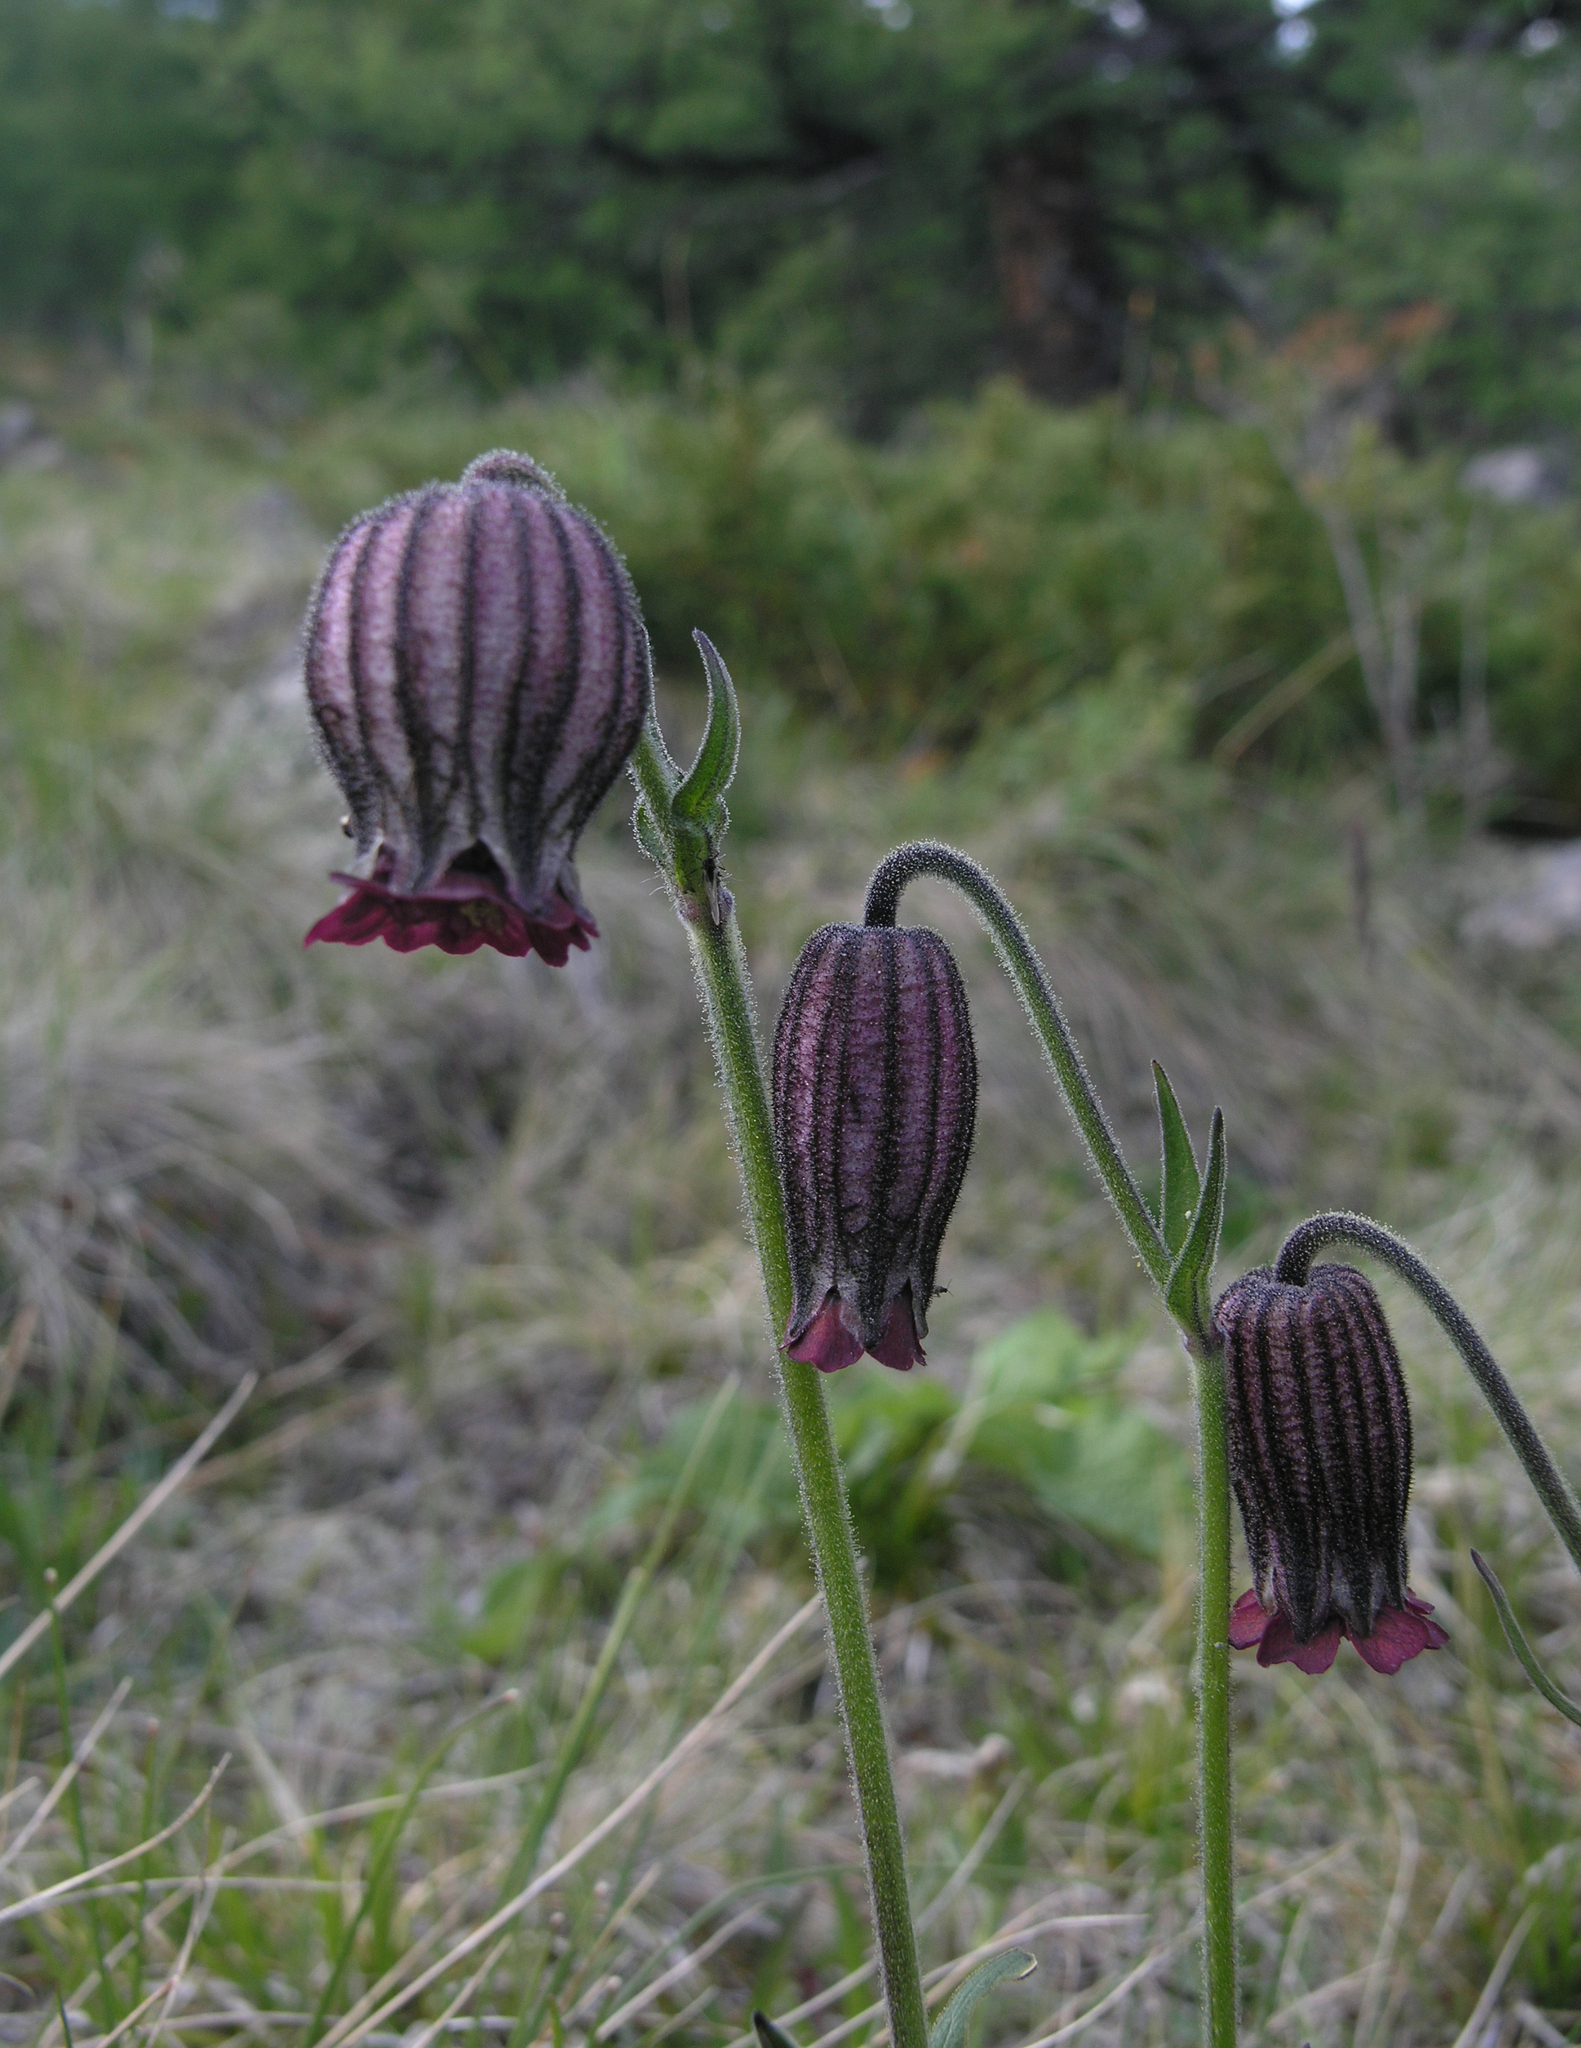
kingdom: Plantae
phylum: Tracheophyta
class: Magnoliopsida
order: Caryophyllales
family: Caryophyllaceae
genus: Silene
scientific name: Silene bungei
